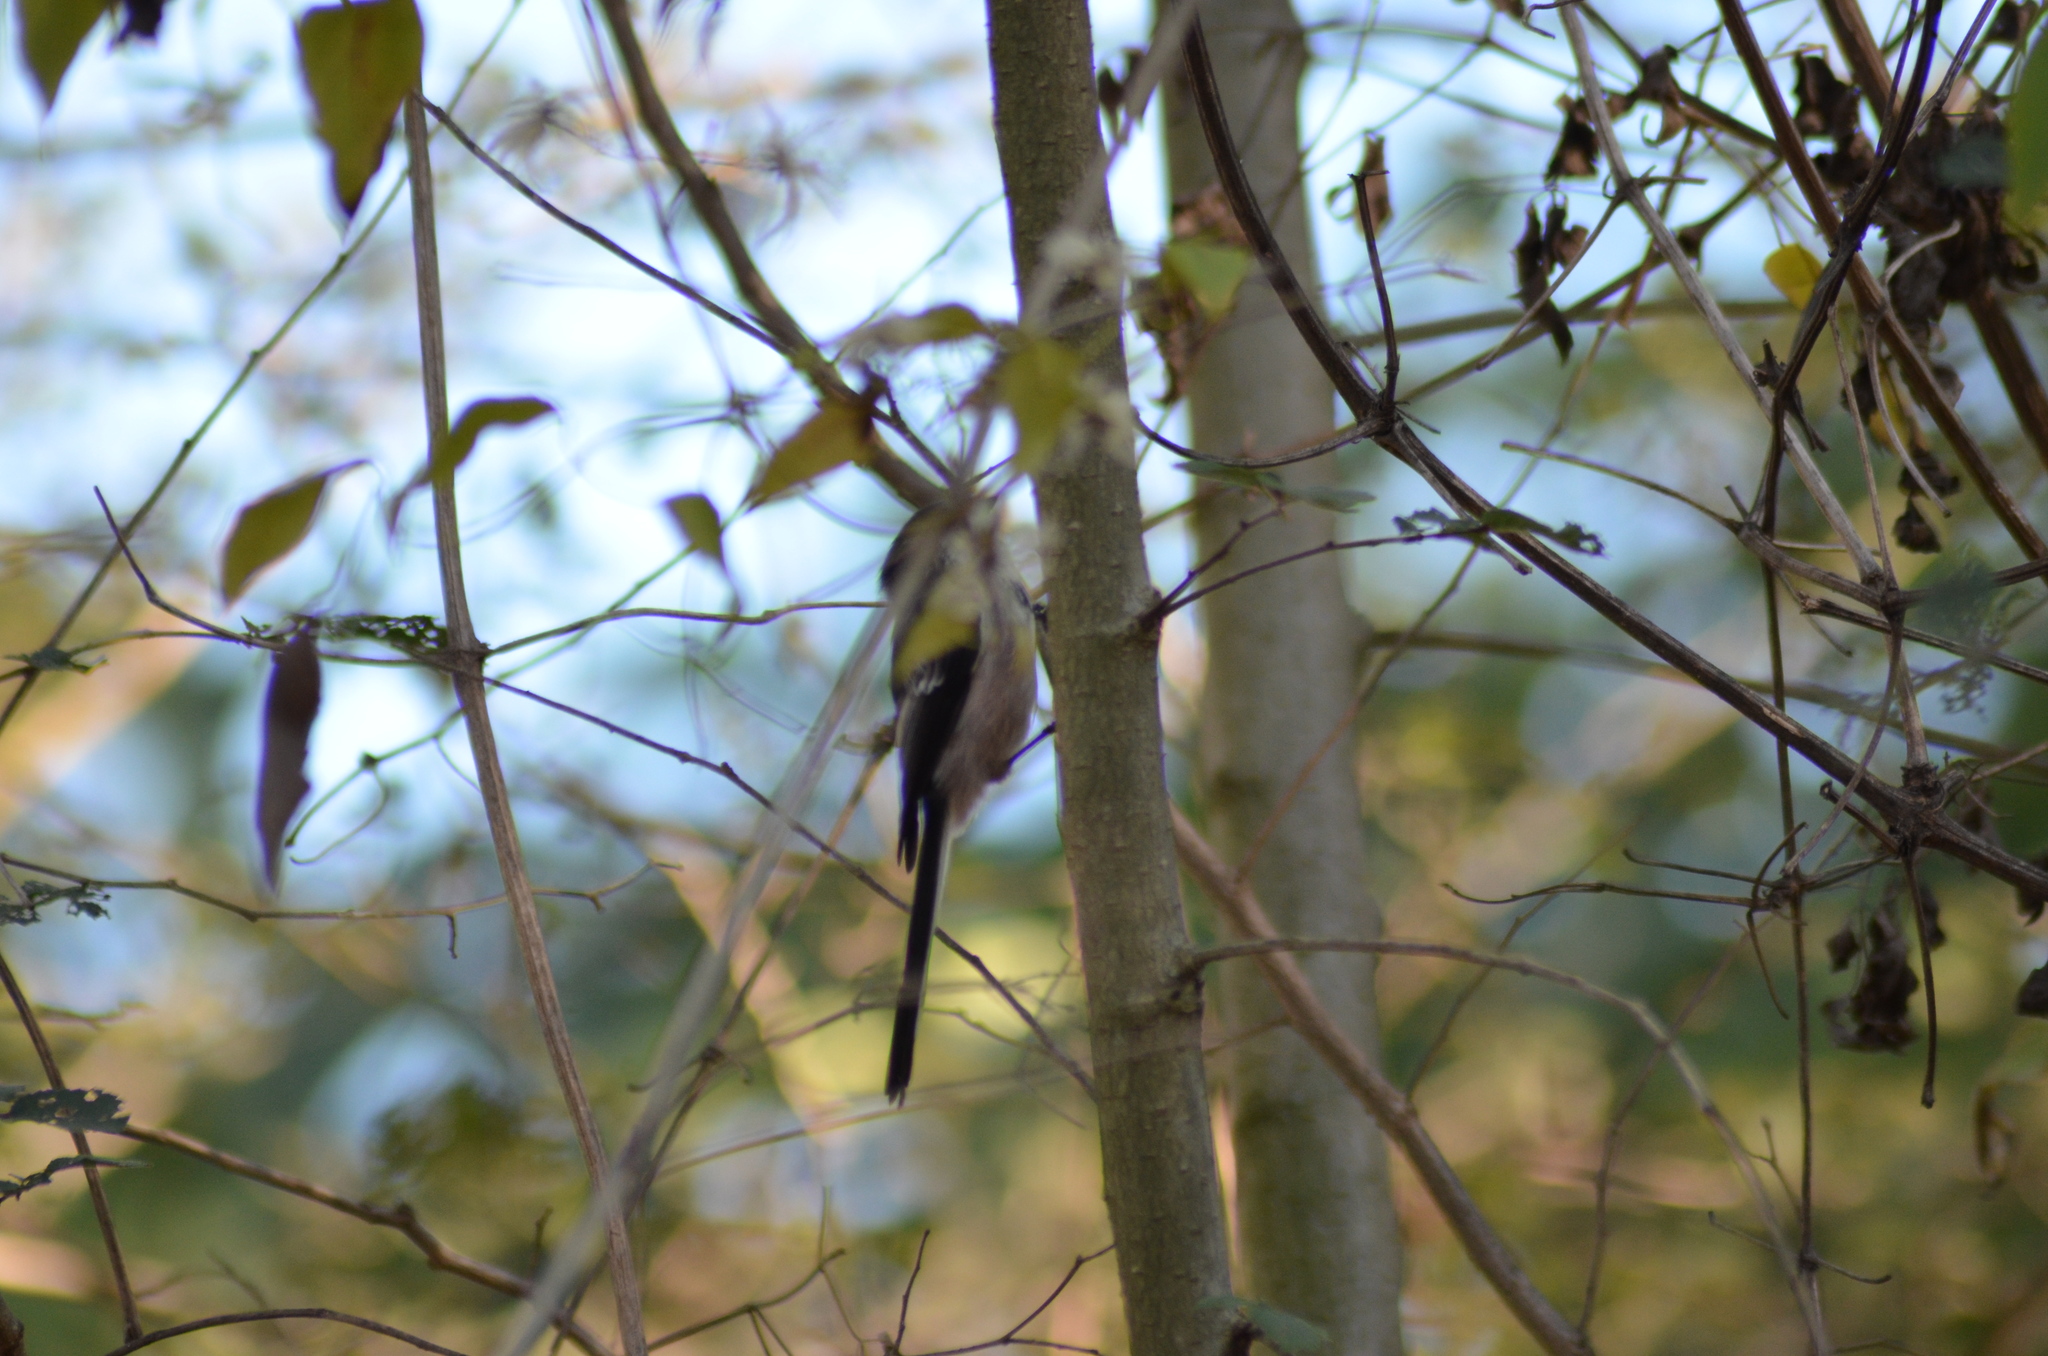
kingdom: Animalia
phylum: Chordata
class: Aves
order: Passeriformes
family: Aegithalidae
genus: Aegithalos
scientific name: Aegithalos caudatus
